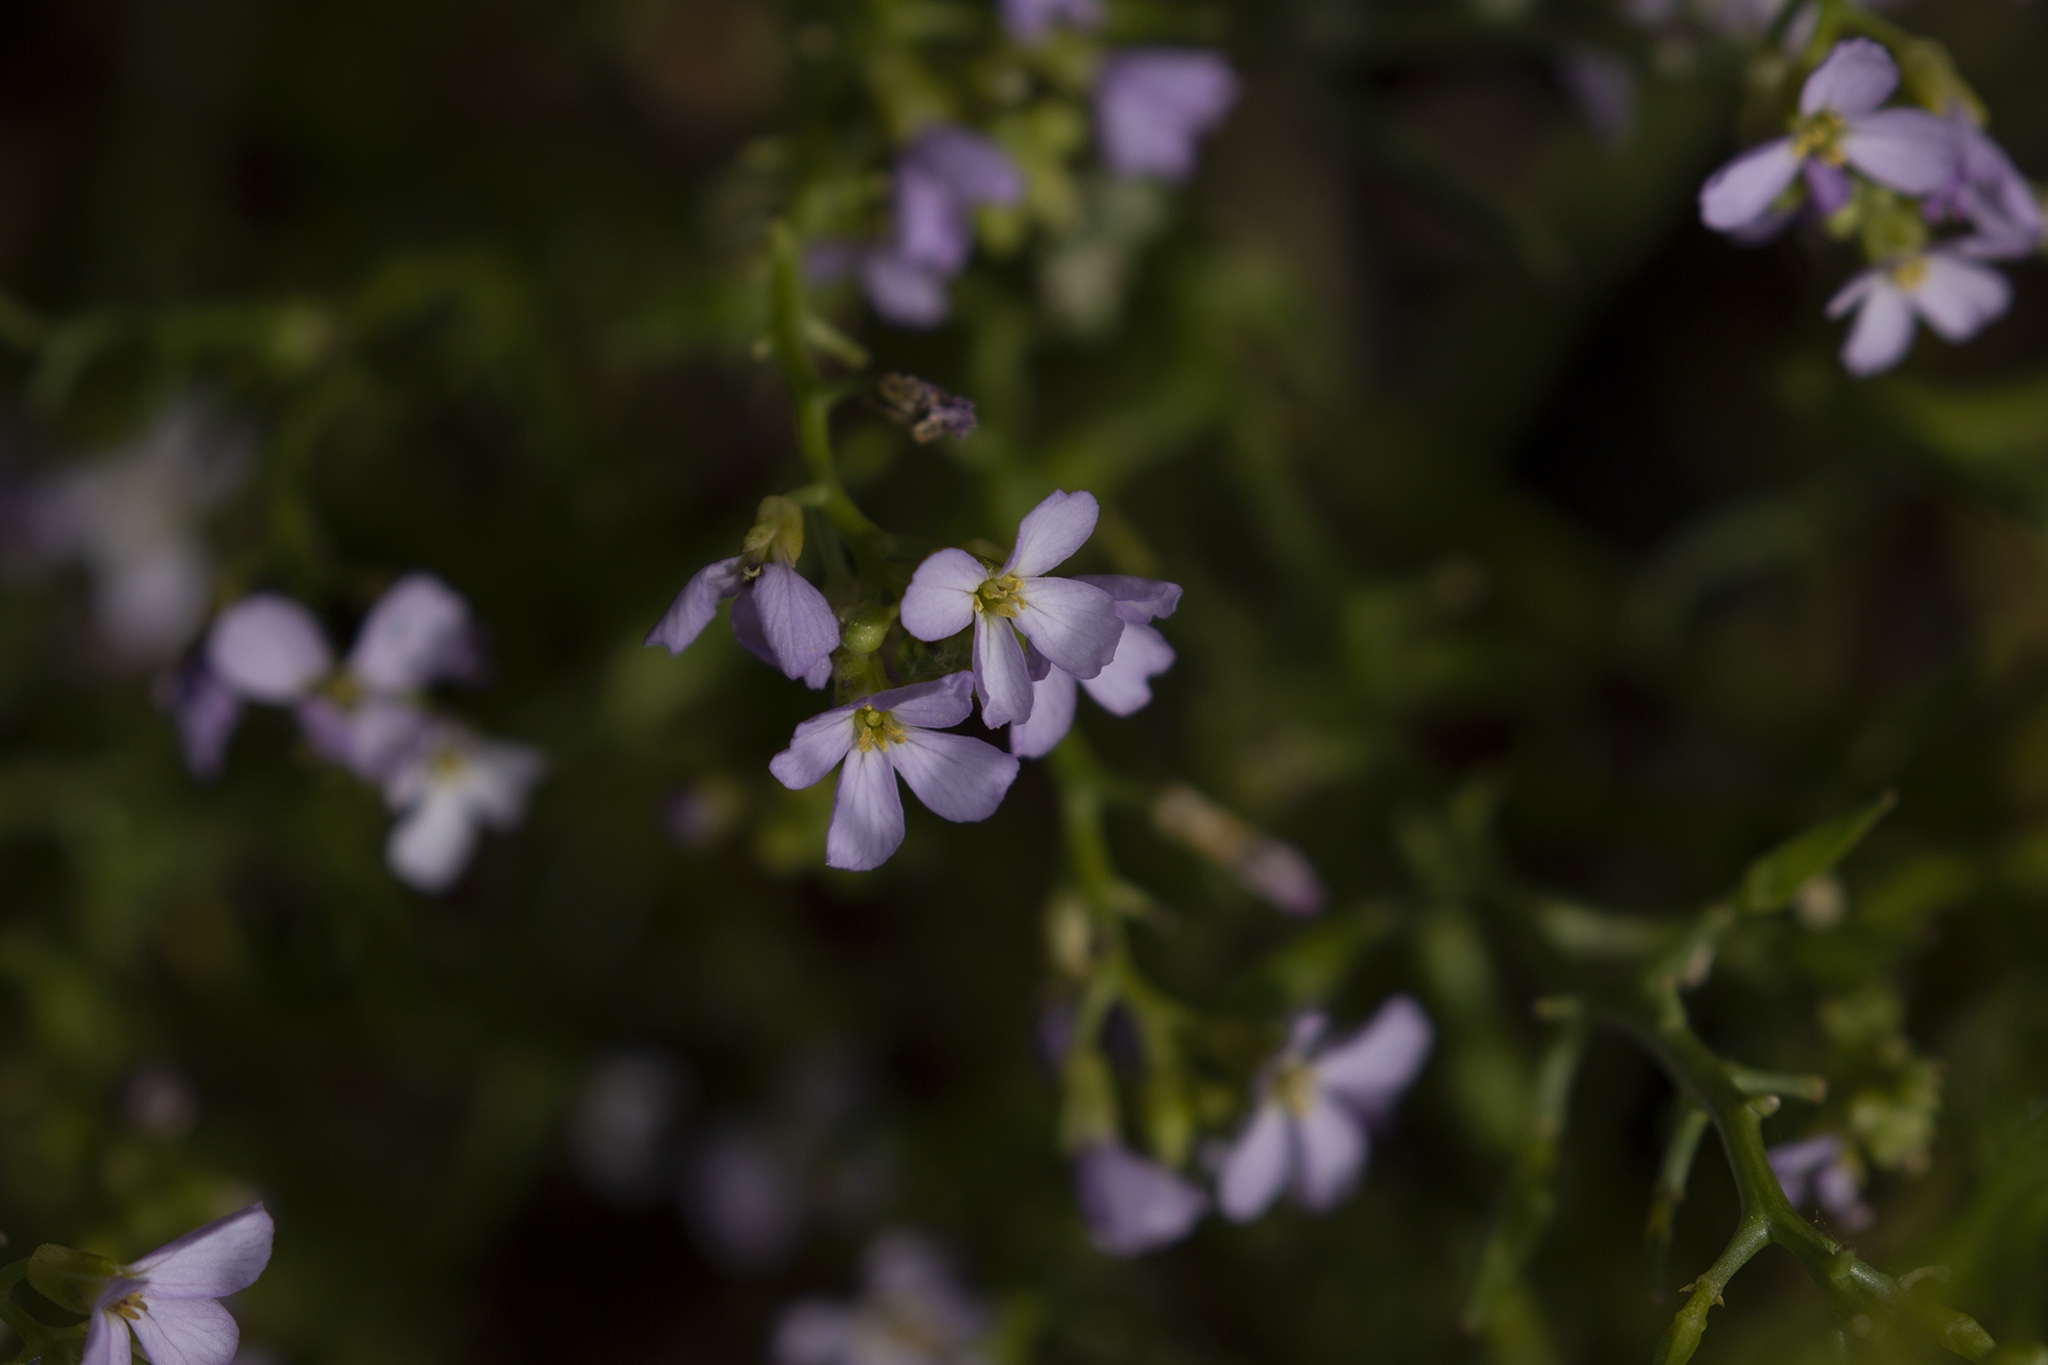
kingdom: Plantae
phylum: Tracheophyta
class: Magnoliopsida
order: Brassicales
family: Brassicaceae
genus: Cakile
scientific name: Cakile maritima
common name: Sea rocket
